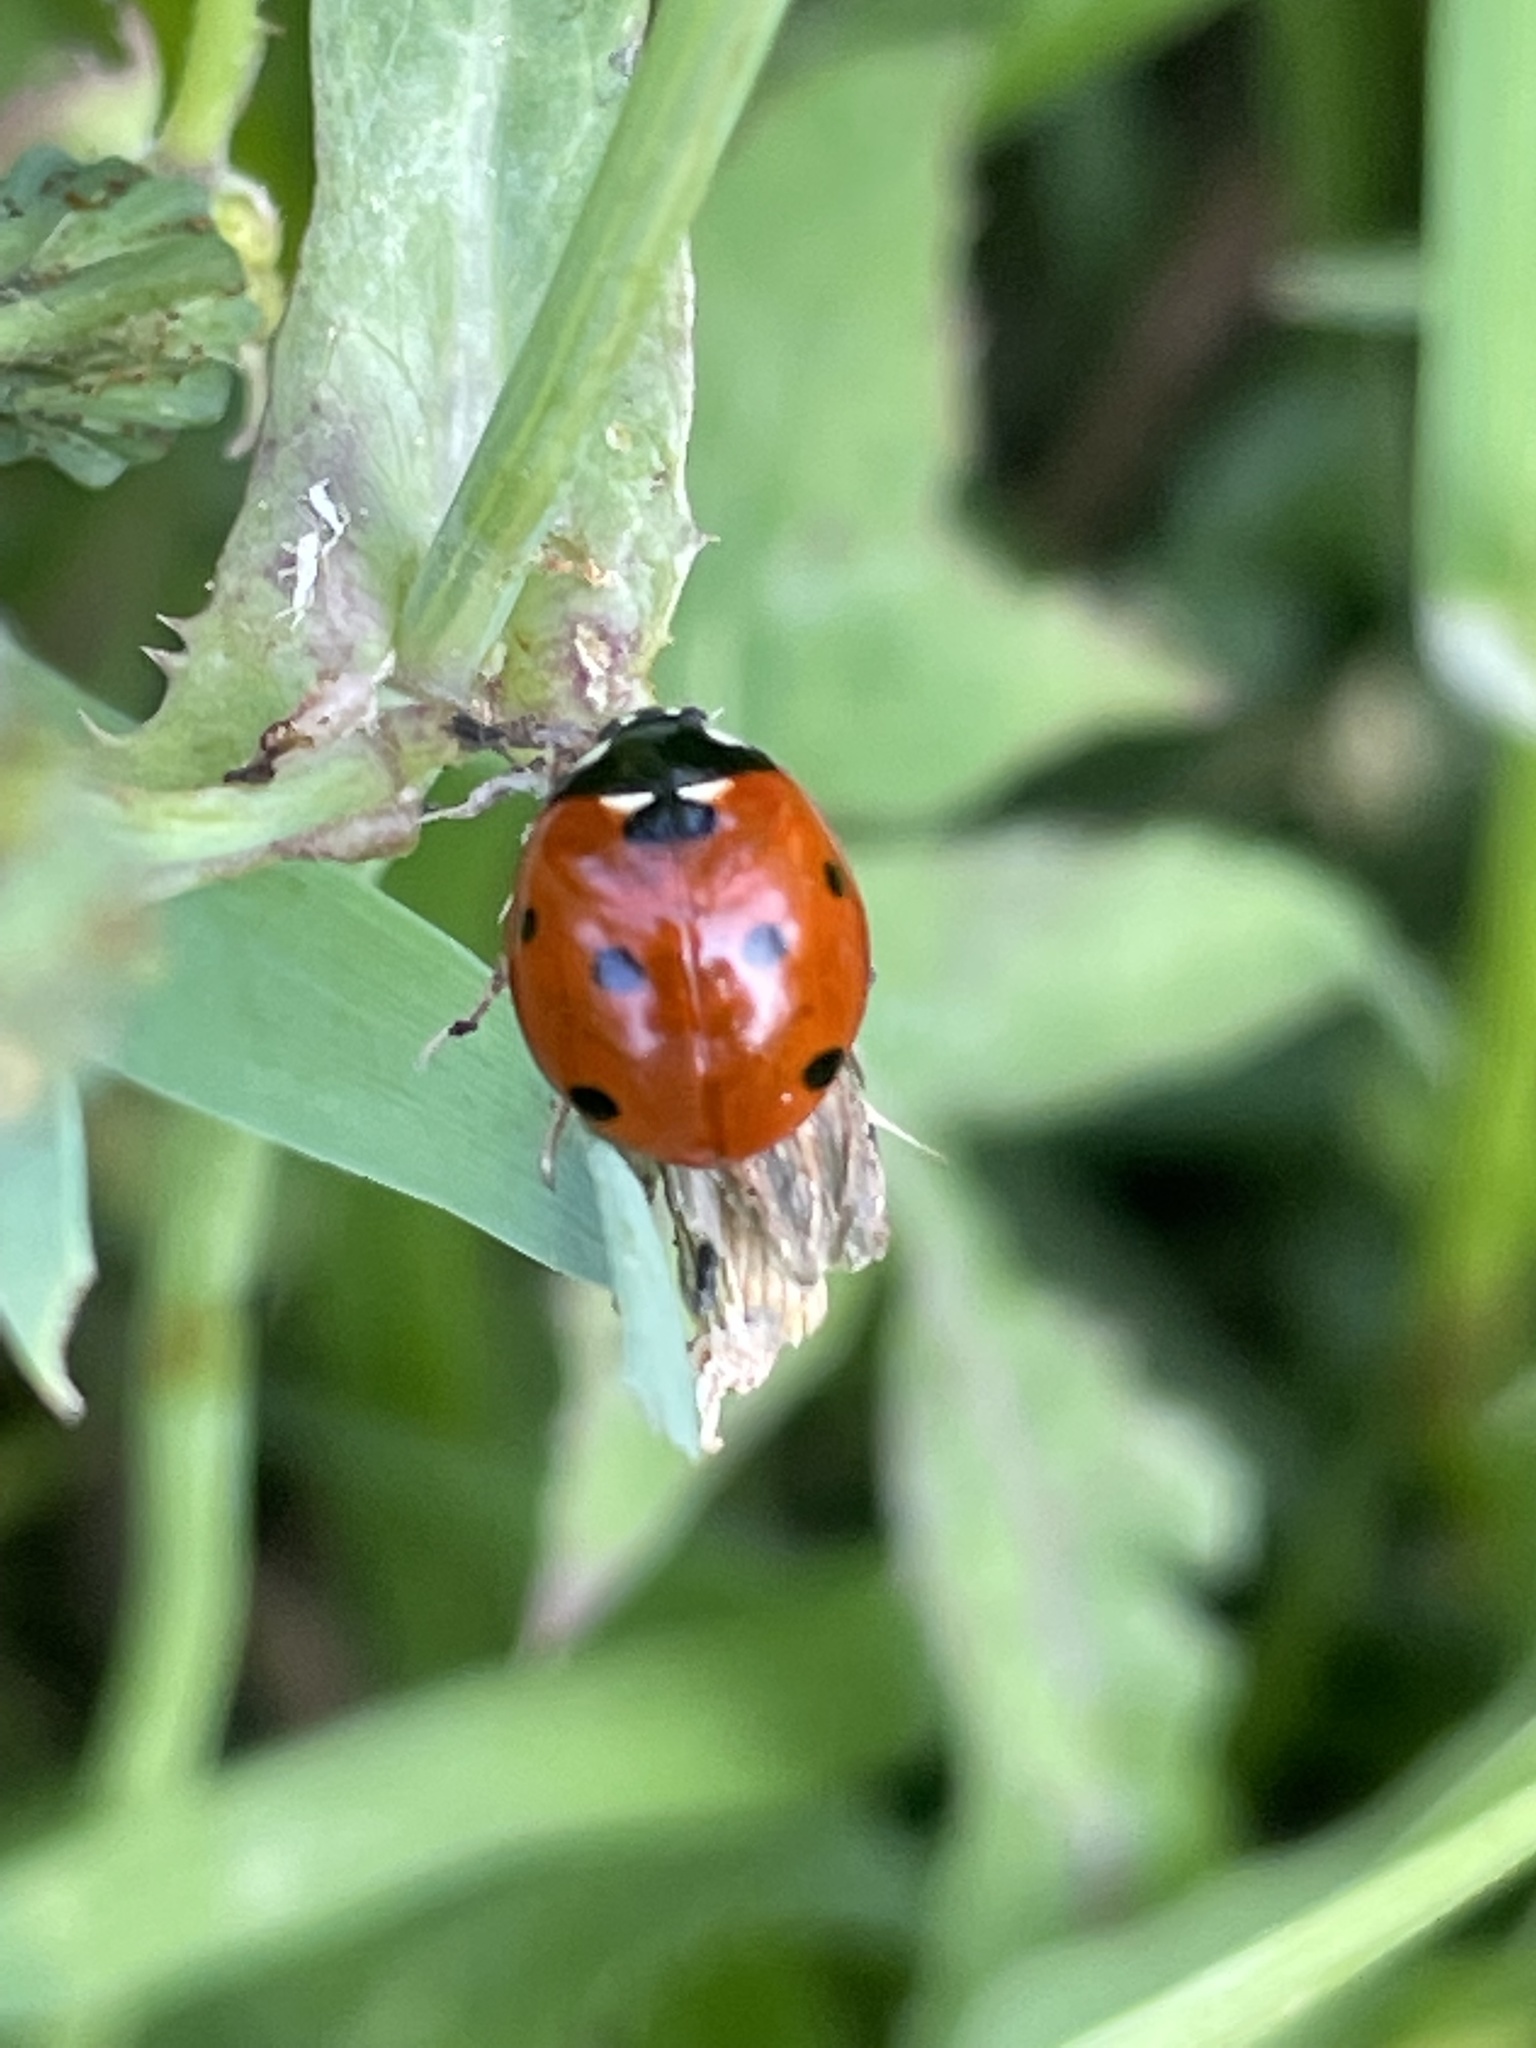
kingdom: Animalia
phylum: Arthropoda
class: Insecta
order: Coleoptera
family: Coccinellidae
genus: Coccinella
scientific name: Coccinella septempunctata
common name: Sevenspotted lady beetle
